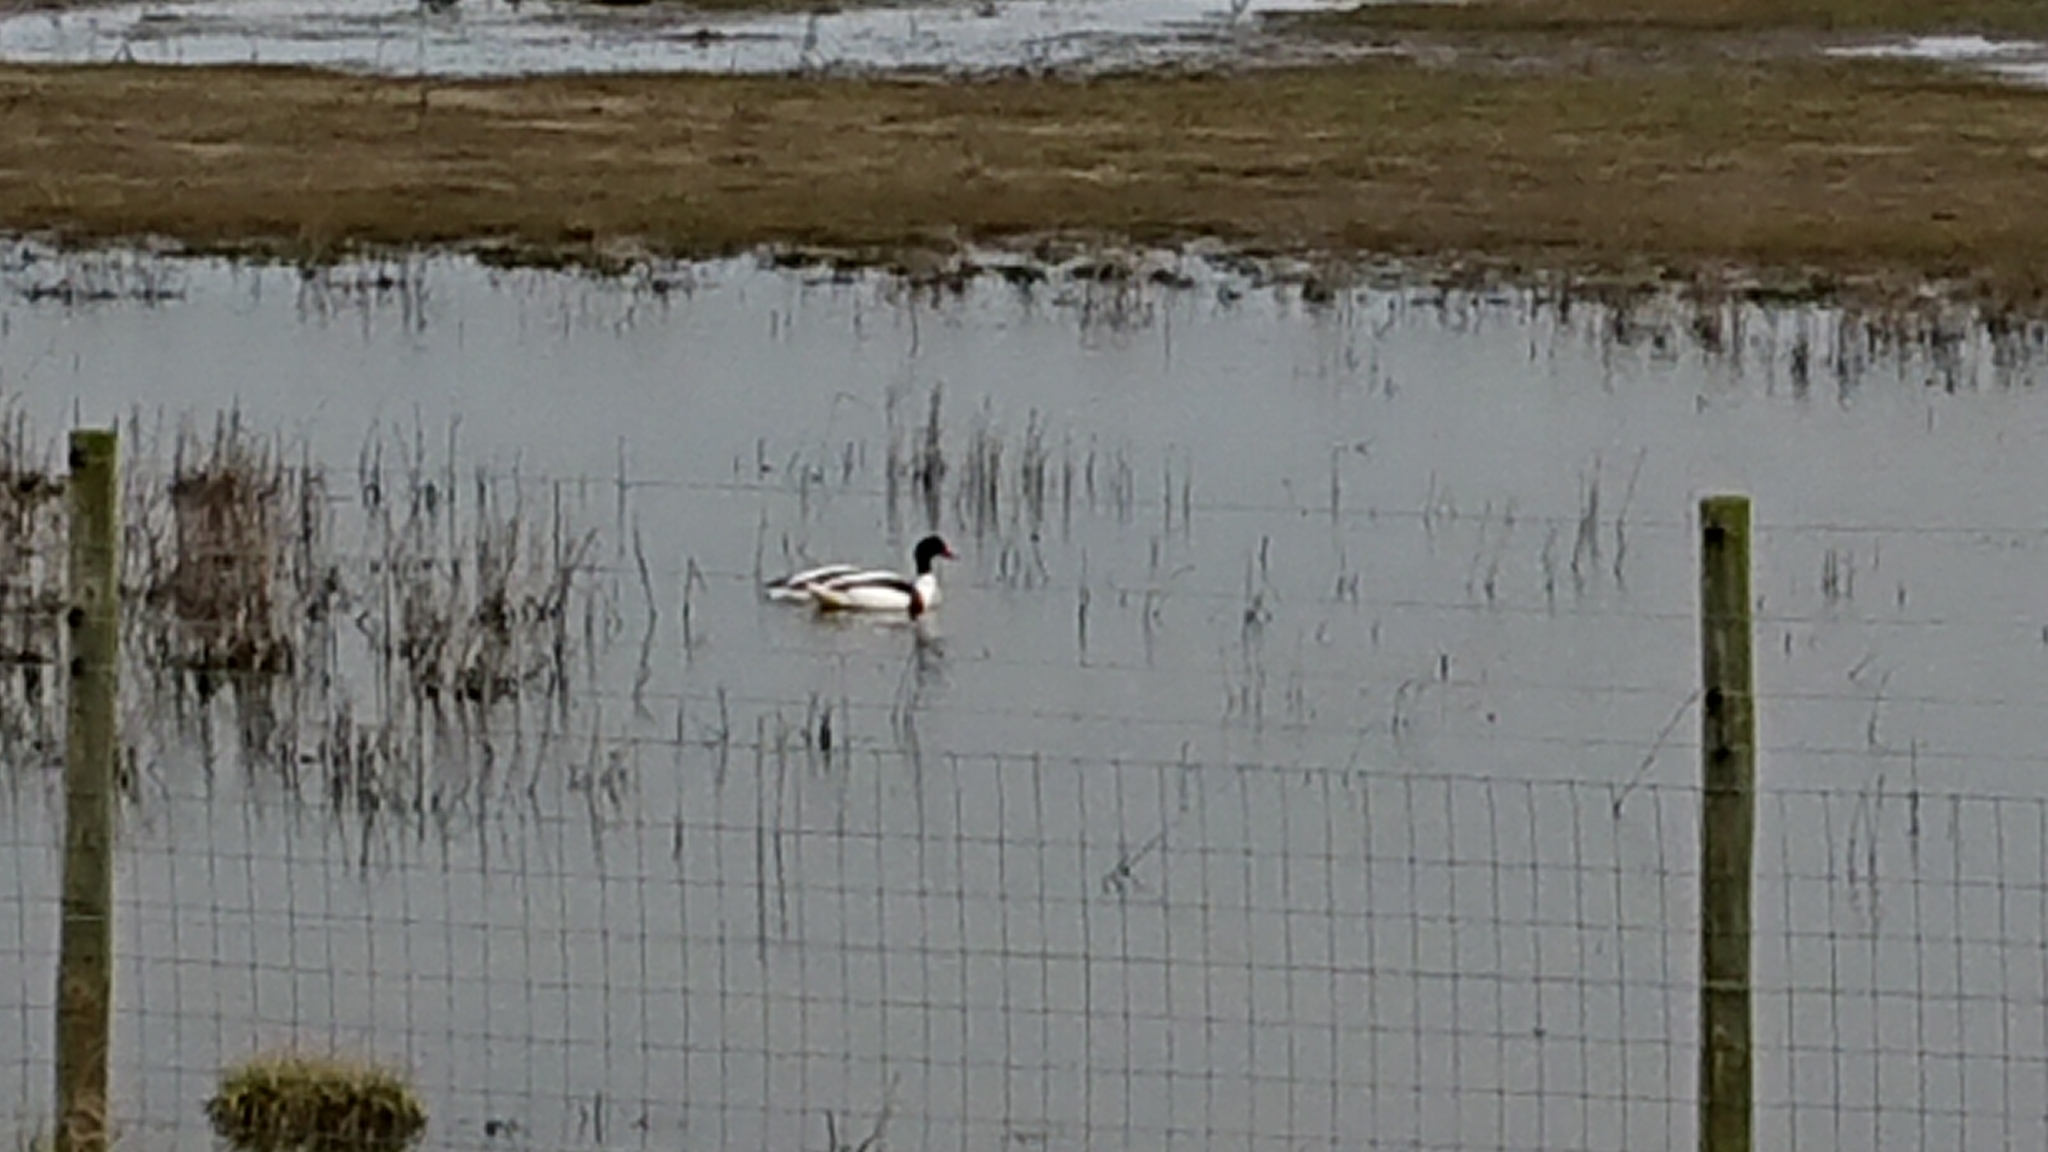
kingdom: Animalia
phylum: Chordata
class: Aves
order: Anseriformes
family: Anatidae
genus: Tadorna
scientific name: Tadorna tadorna
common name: Common shelduck
